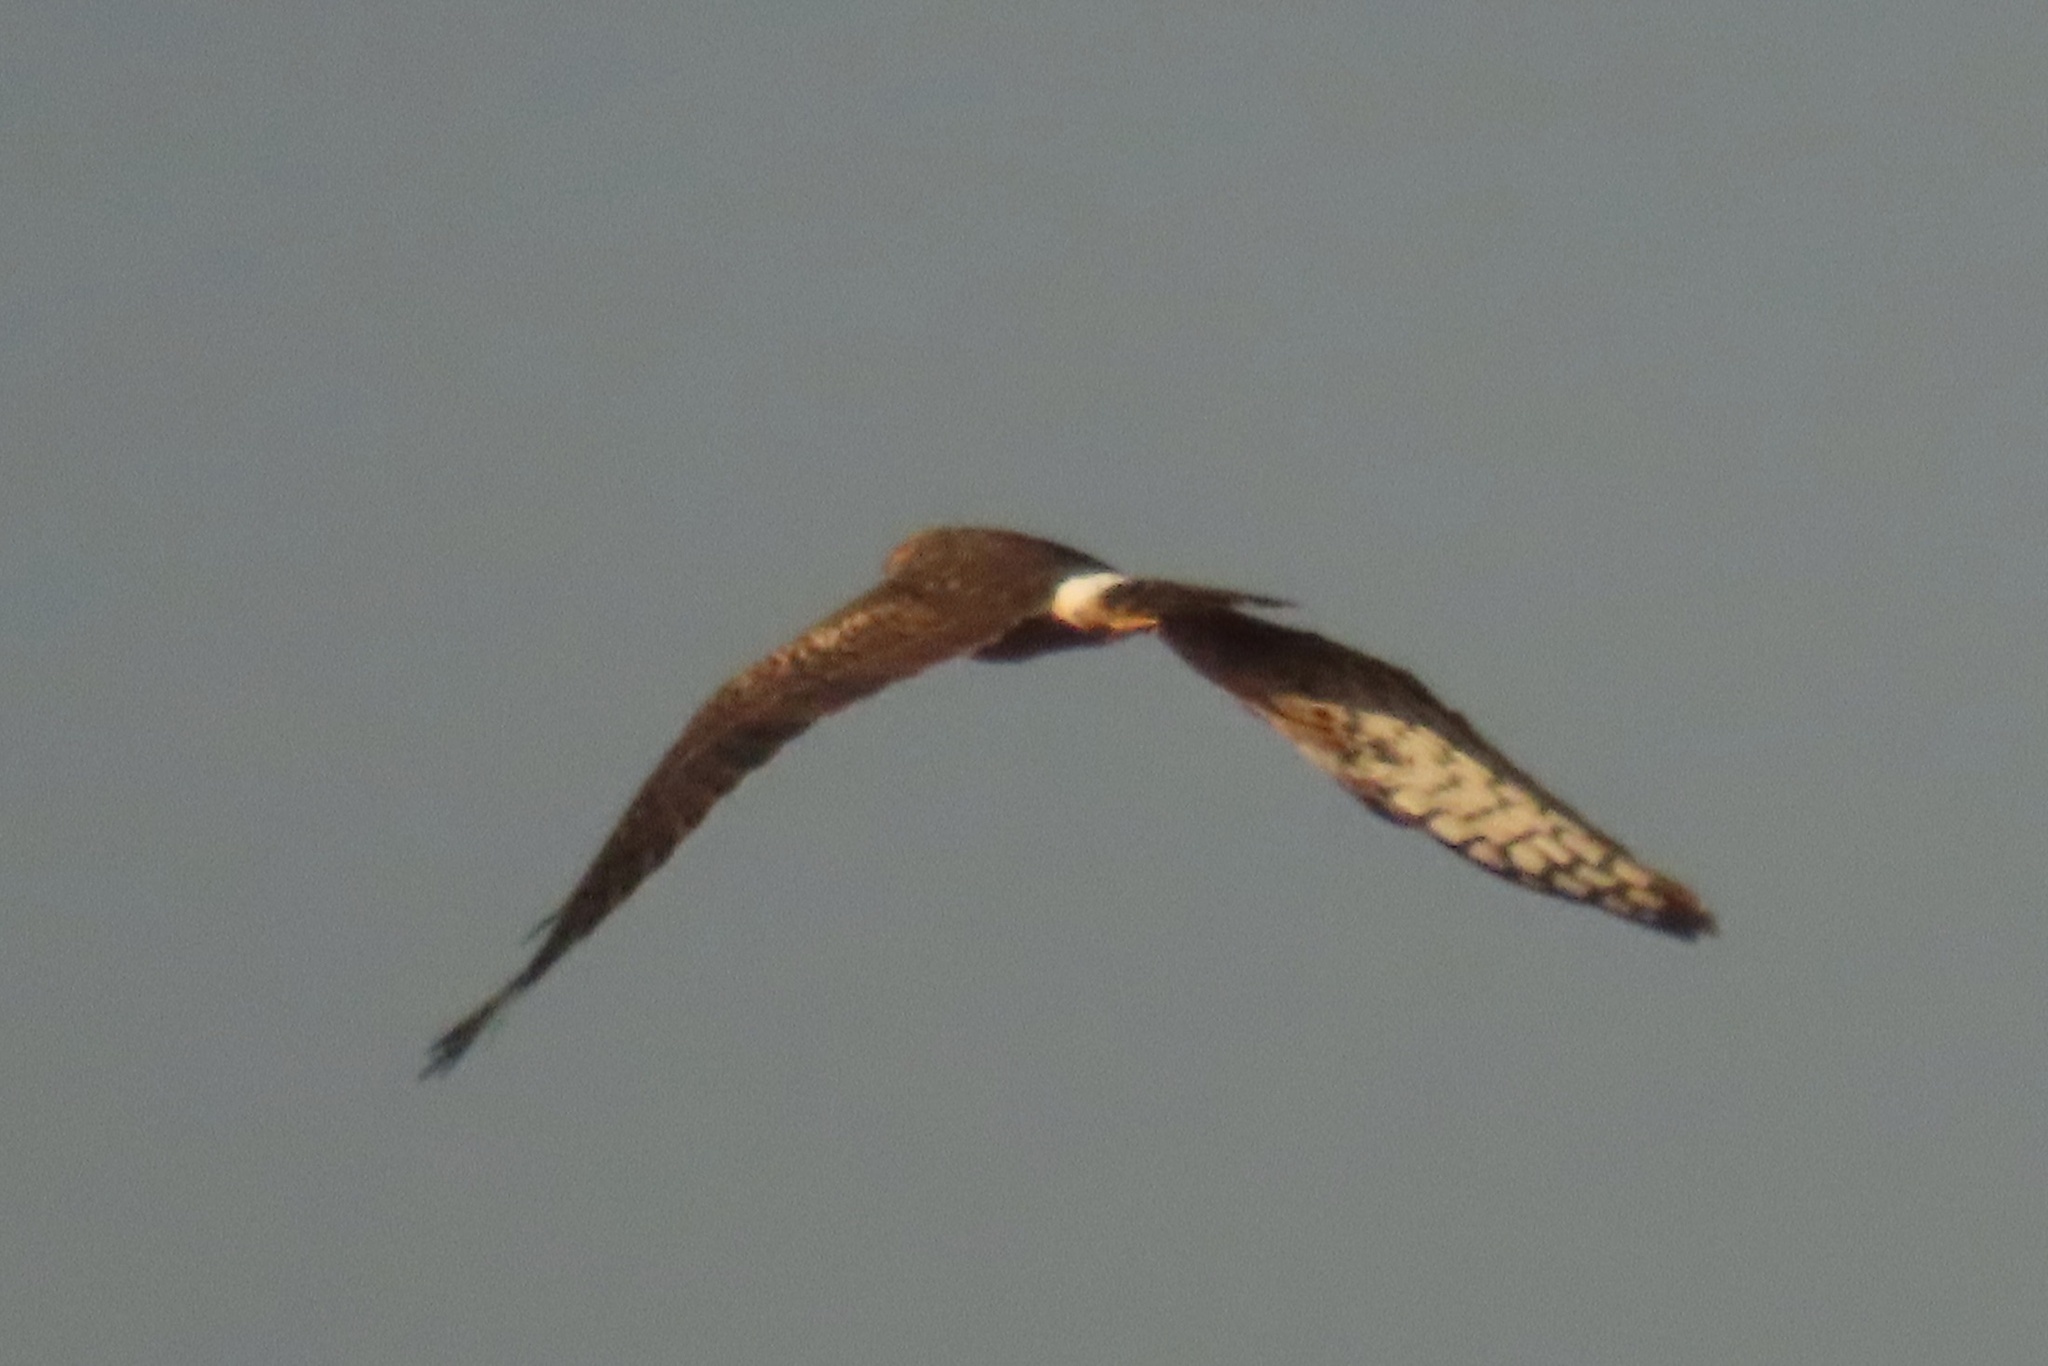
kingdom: Animalia
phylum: Chordata
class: Aves
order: Accipitriformes
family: Accipitridae
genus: Circus
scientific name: Circus cyaneus
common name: Hen harrier
